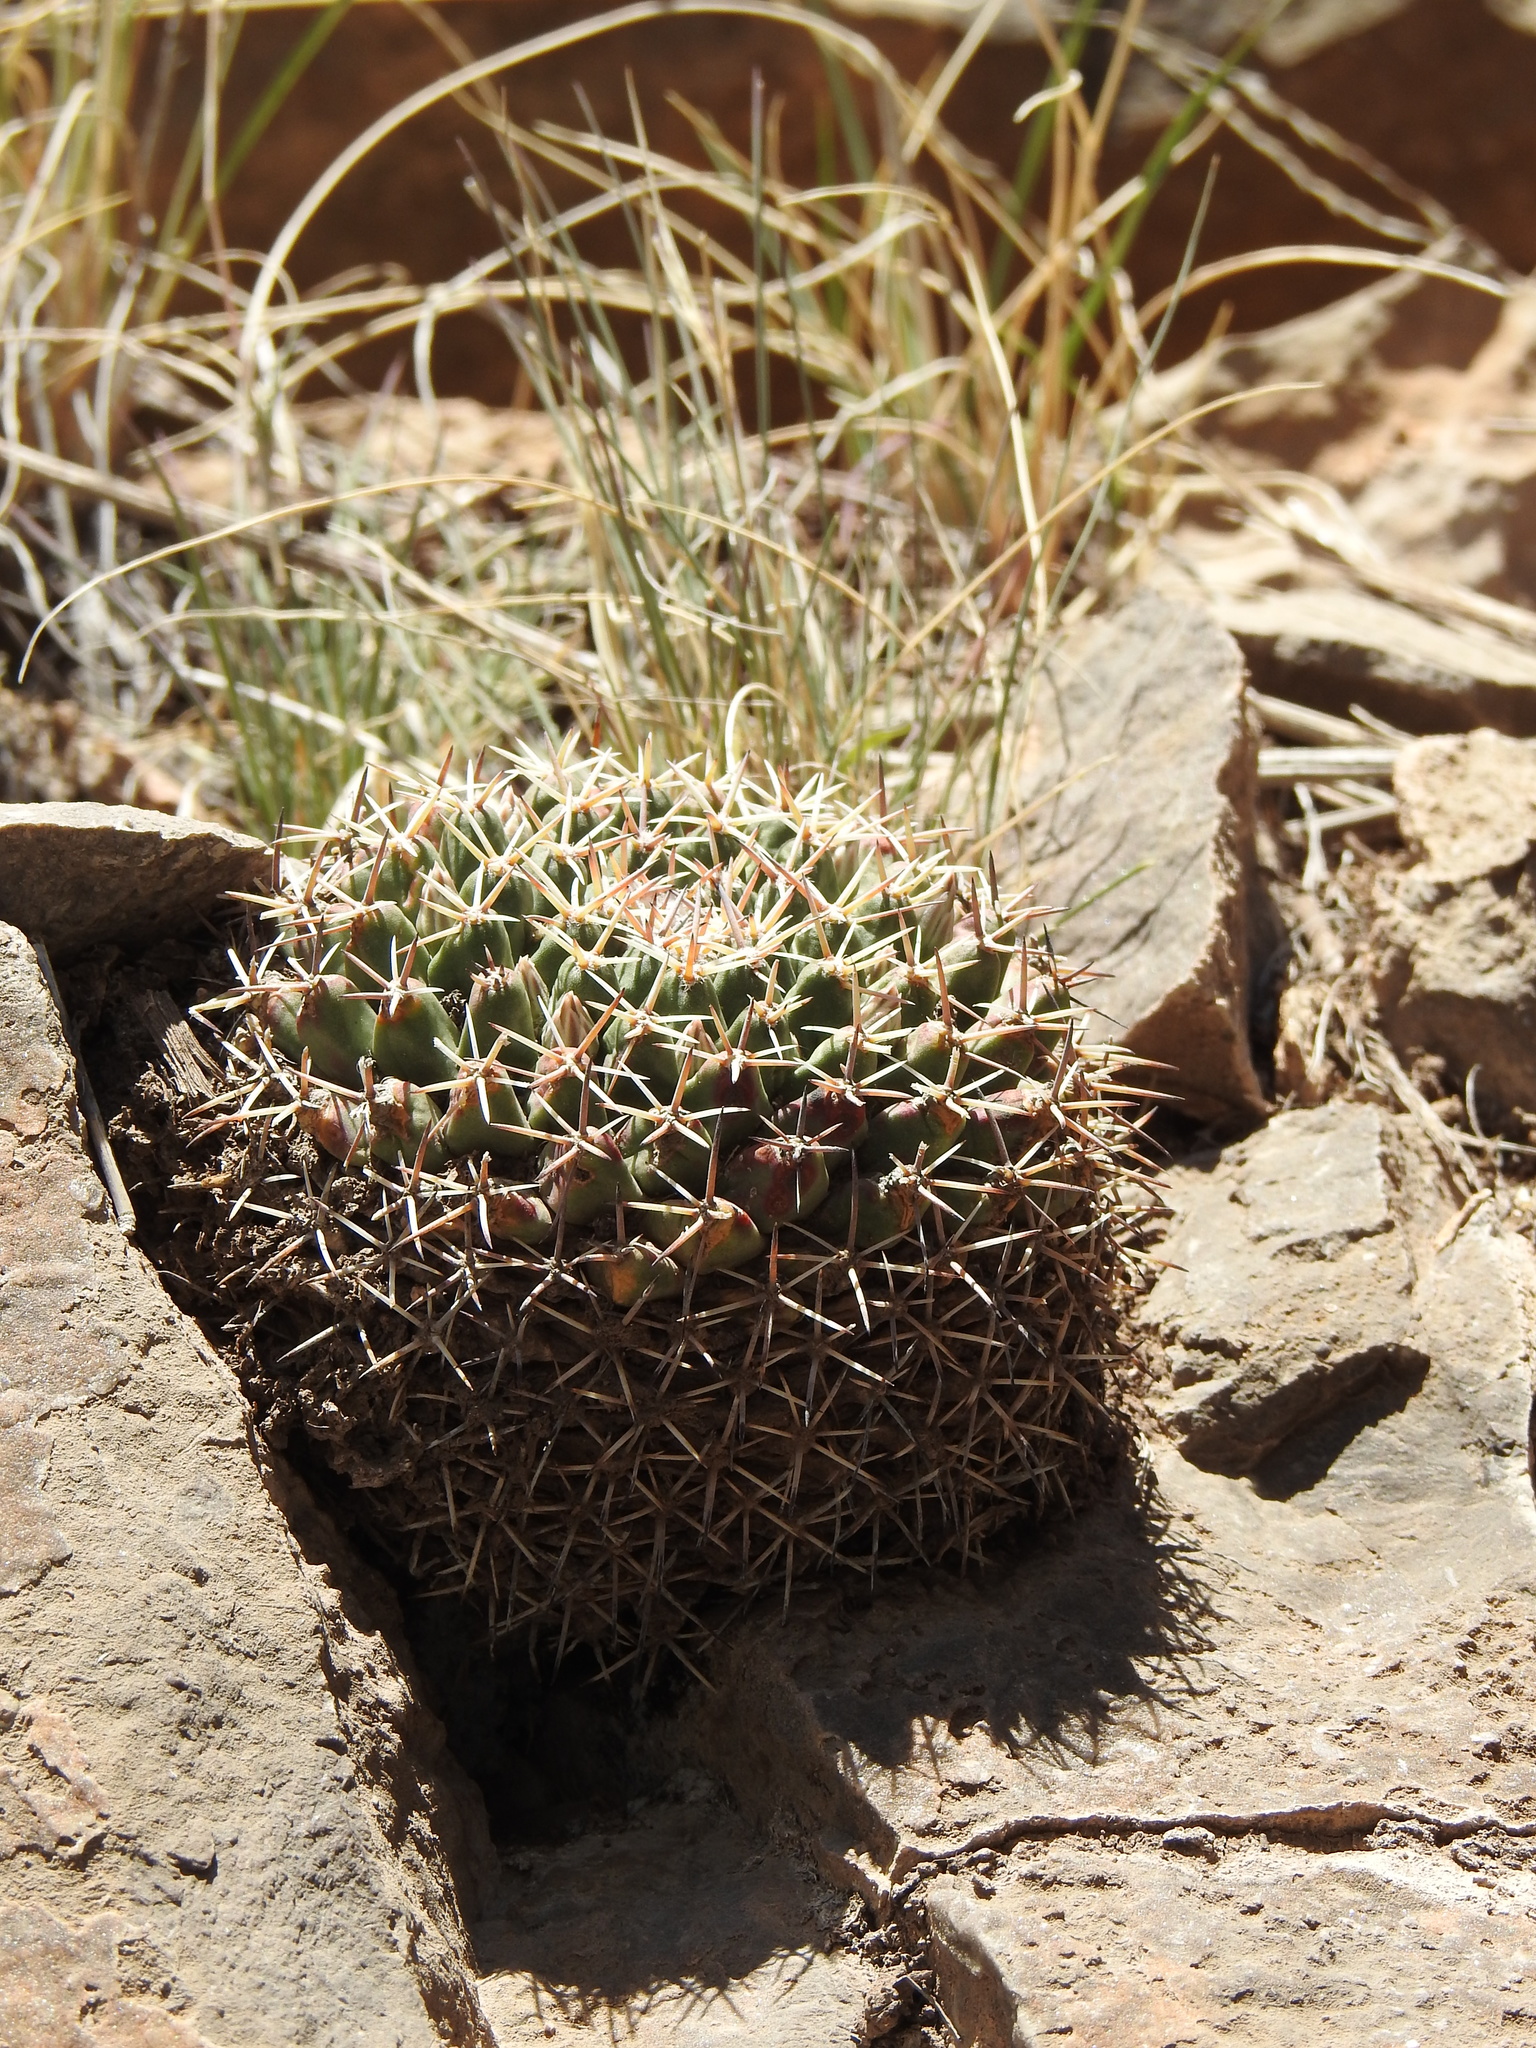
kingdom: Plantae
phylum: Tracheophyta
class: Magnoliopsida
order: Caryophyllales
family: Cactaceae
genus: Mammillaria
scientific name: Mammillaria heyderi
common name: Little nipple cactus
